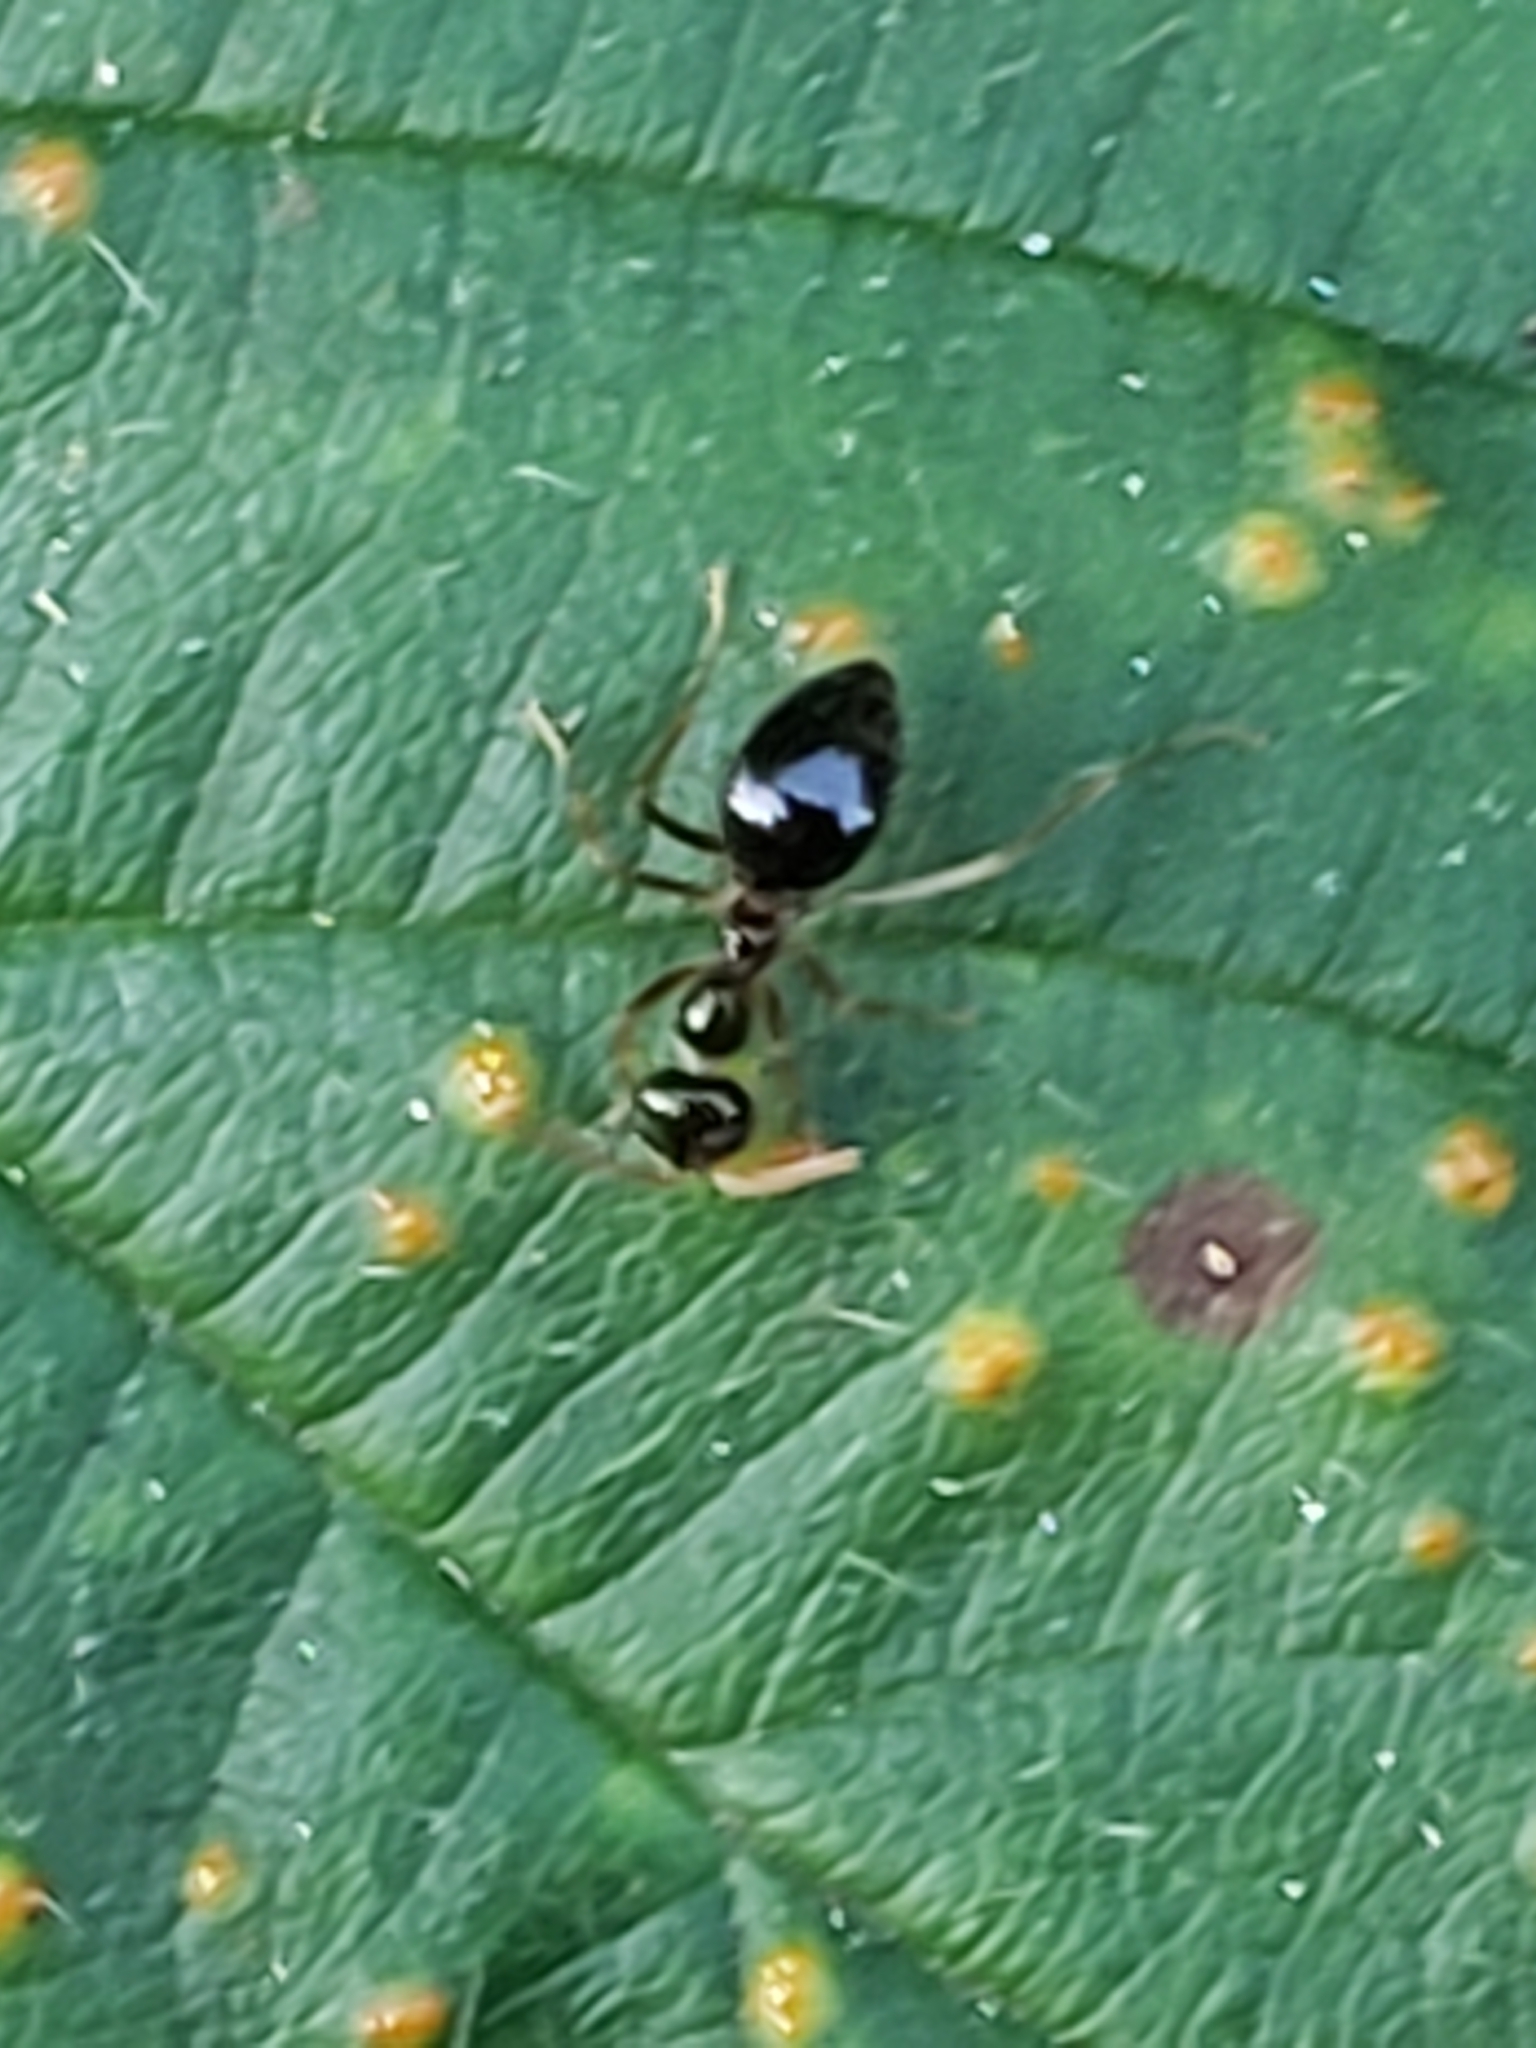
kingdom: Animalia
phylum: Arthropoda
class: Insecta
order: Hymenoptera
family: Formicidae
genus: Prenolepis
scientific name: Prenolepis imparis
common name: Small honey ant
